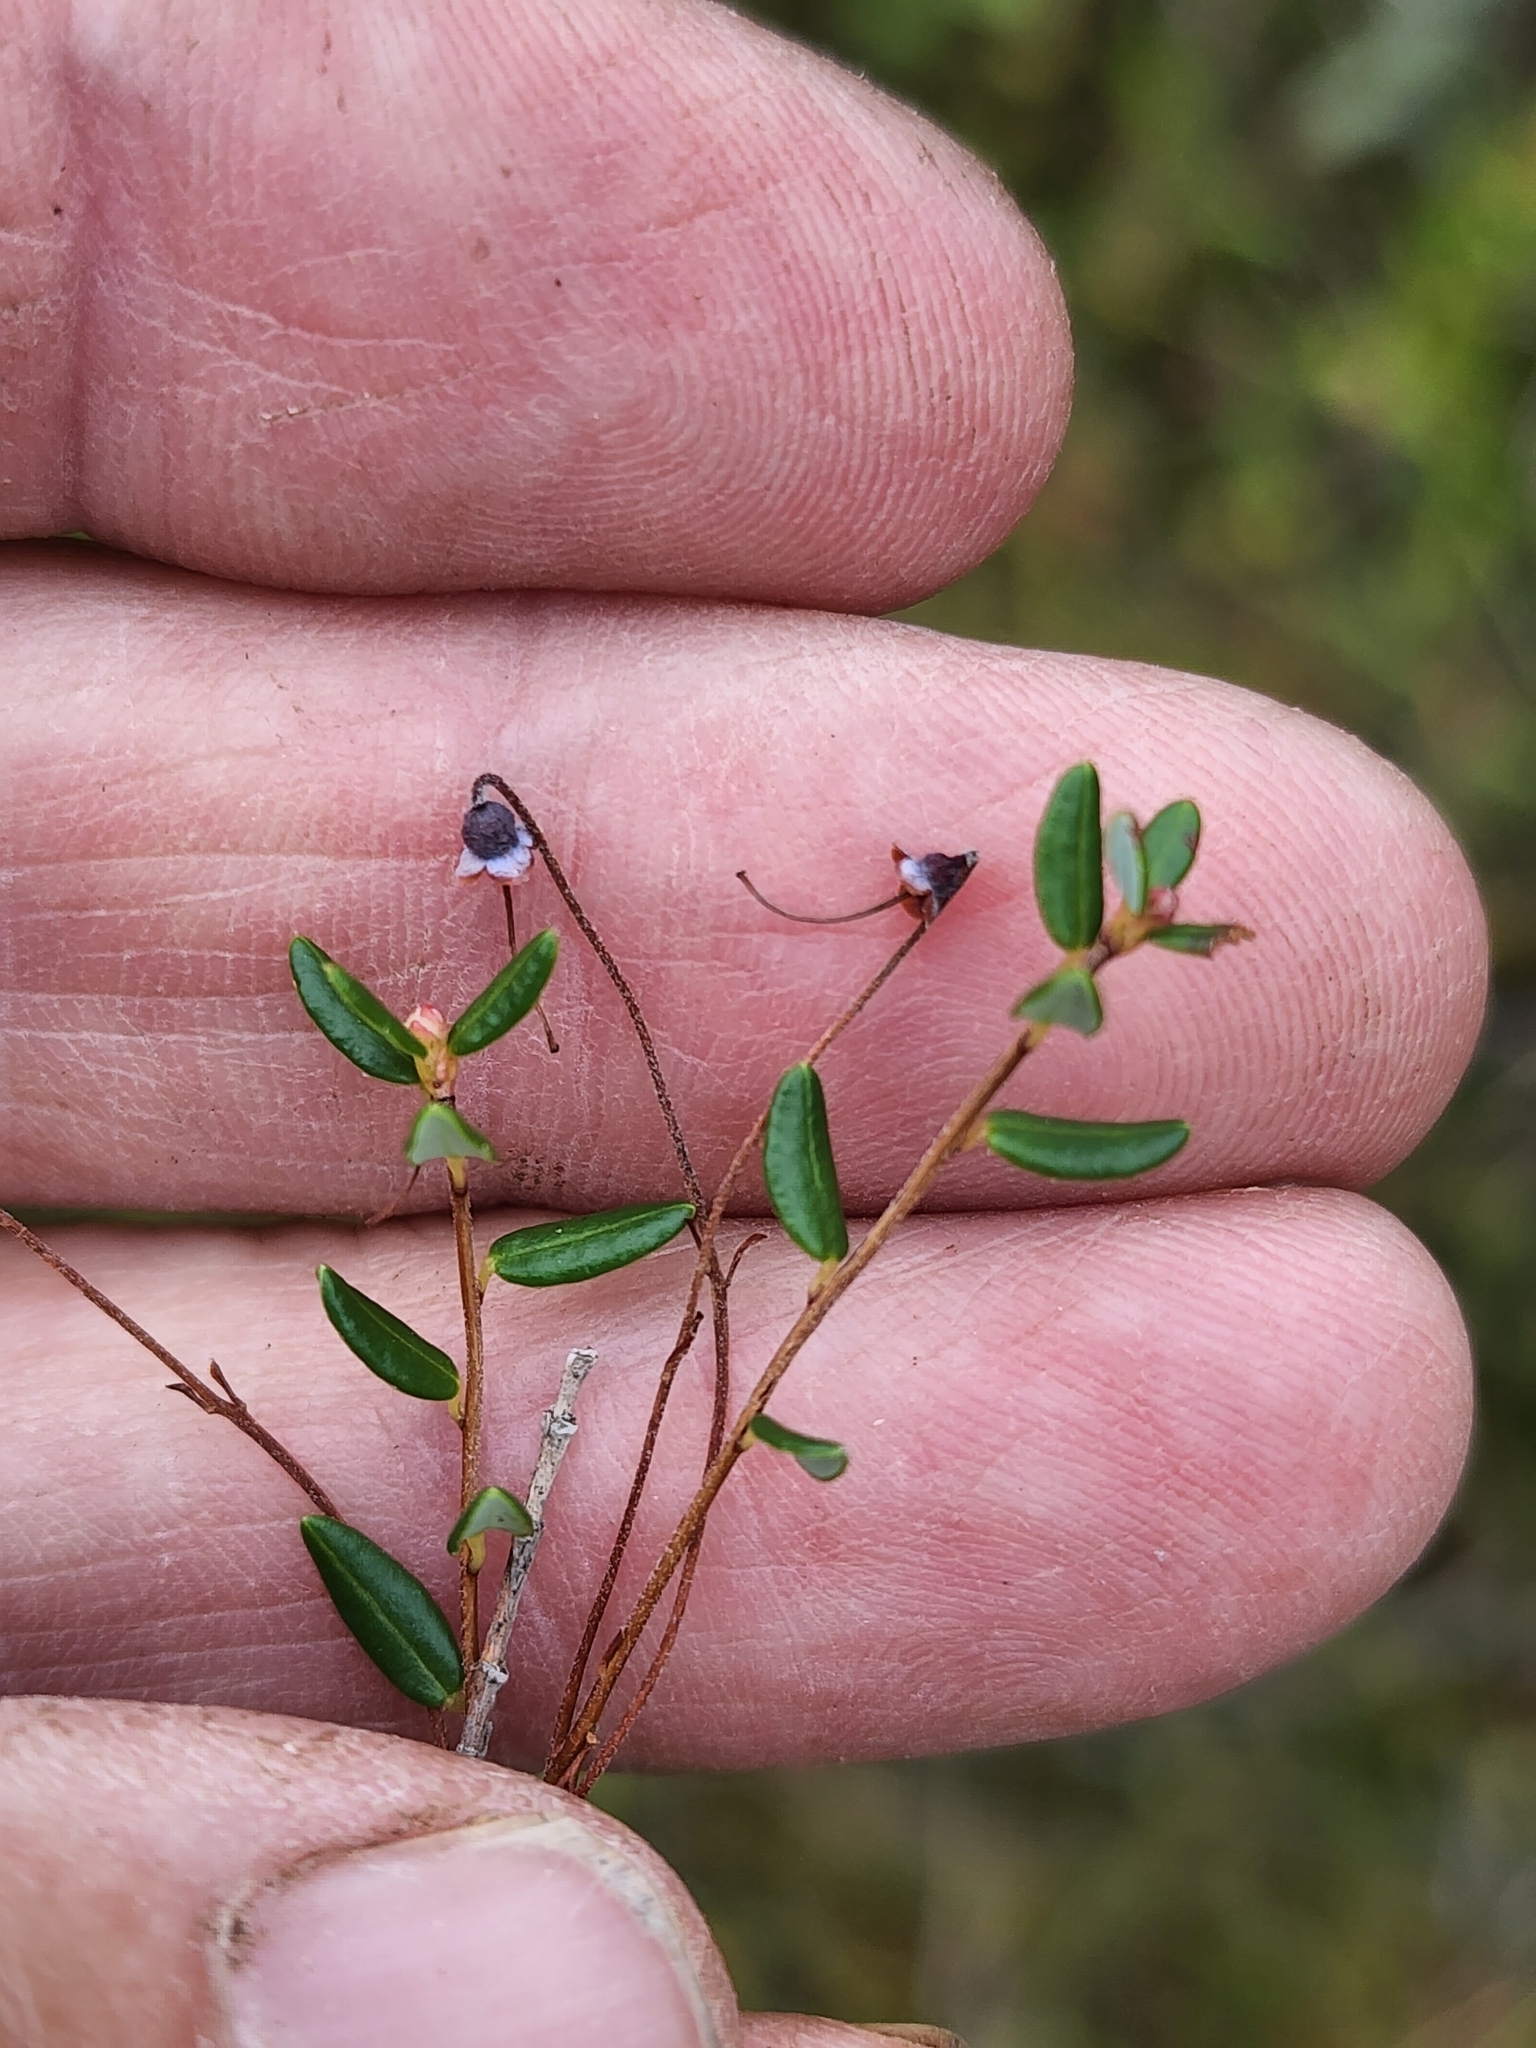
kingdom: Plantae
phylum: Tracheophyta
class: Magnoliopsida
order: Ericales
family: Ericaceae
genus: Vaccinium
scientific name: Vaccinium oxycoccos
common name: Cranberry
